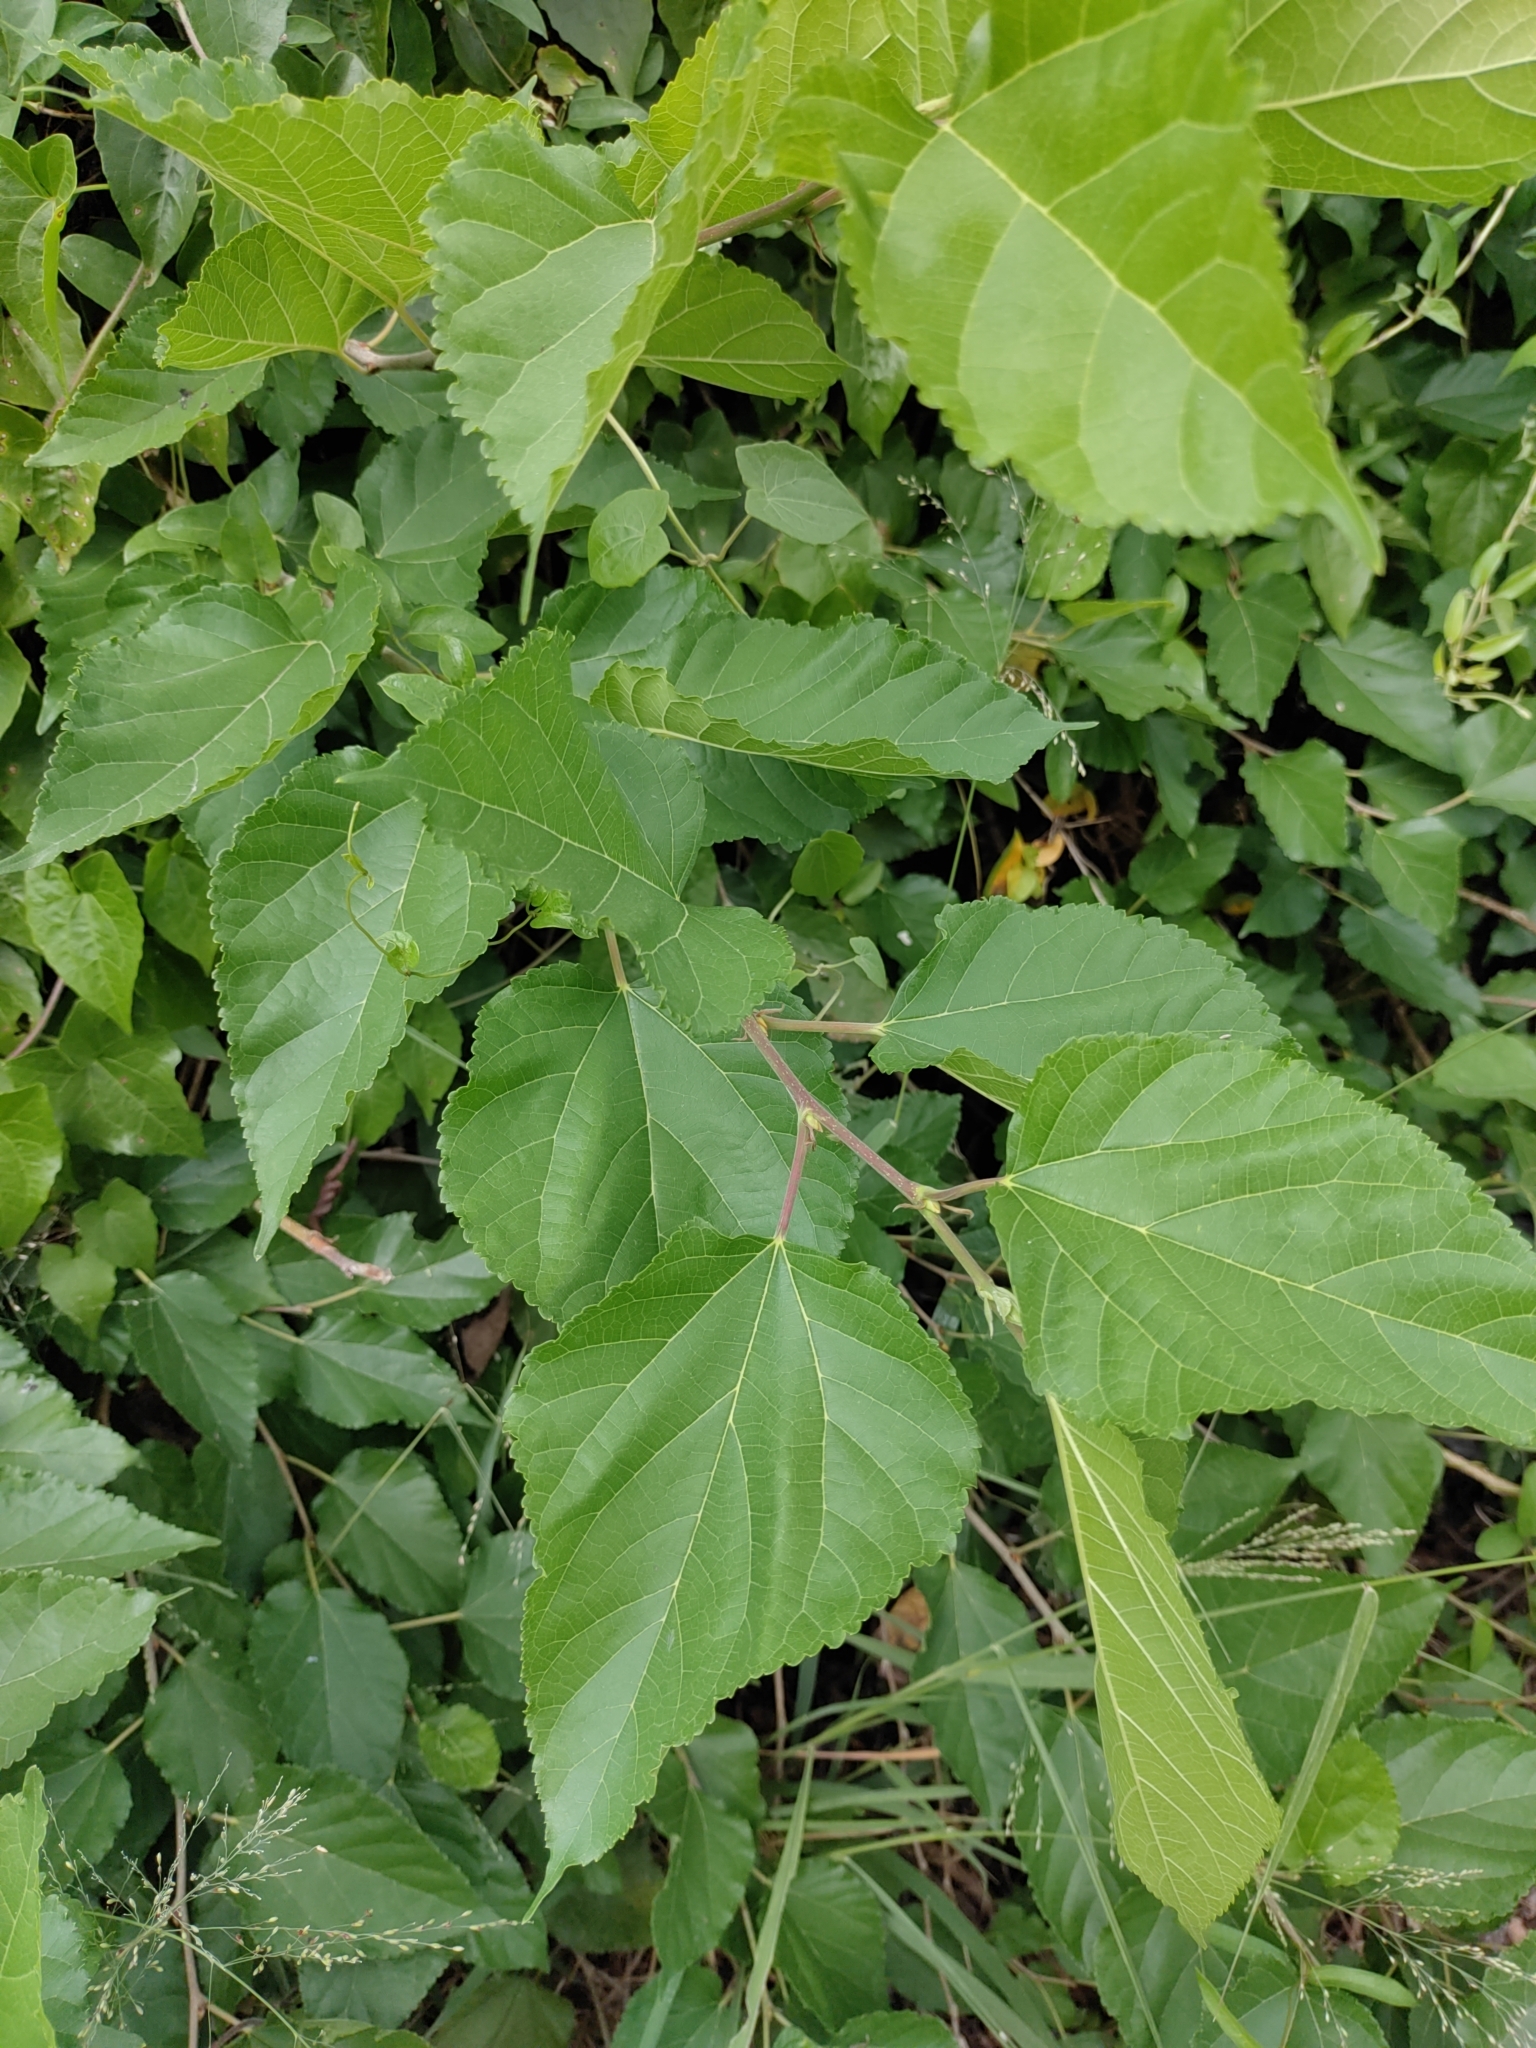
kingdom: Plantae
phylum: Tracheophyta
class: Magnoliopsida
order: Rosales
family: Moraceae
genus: Morus
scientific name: Morus indica
